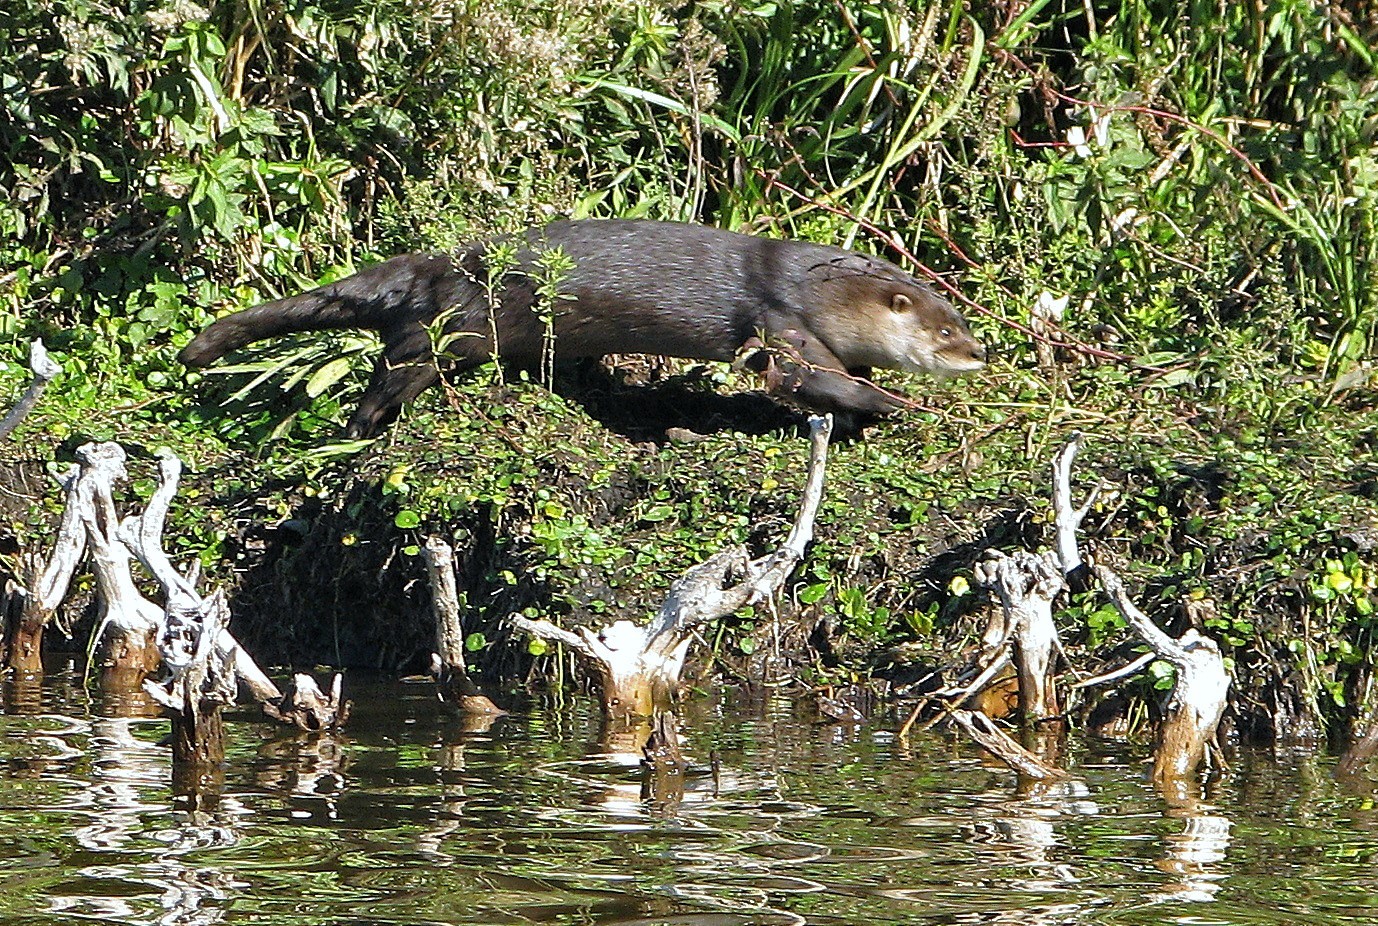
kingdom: Animalia
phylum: Chordata
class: Mammalia
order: Carnivora
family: Mustelidae
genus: Lontra
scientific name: Lontra longicaudis
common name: Neotropical otter
